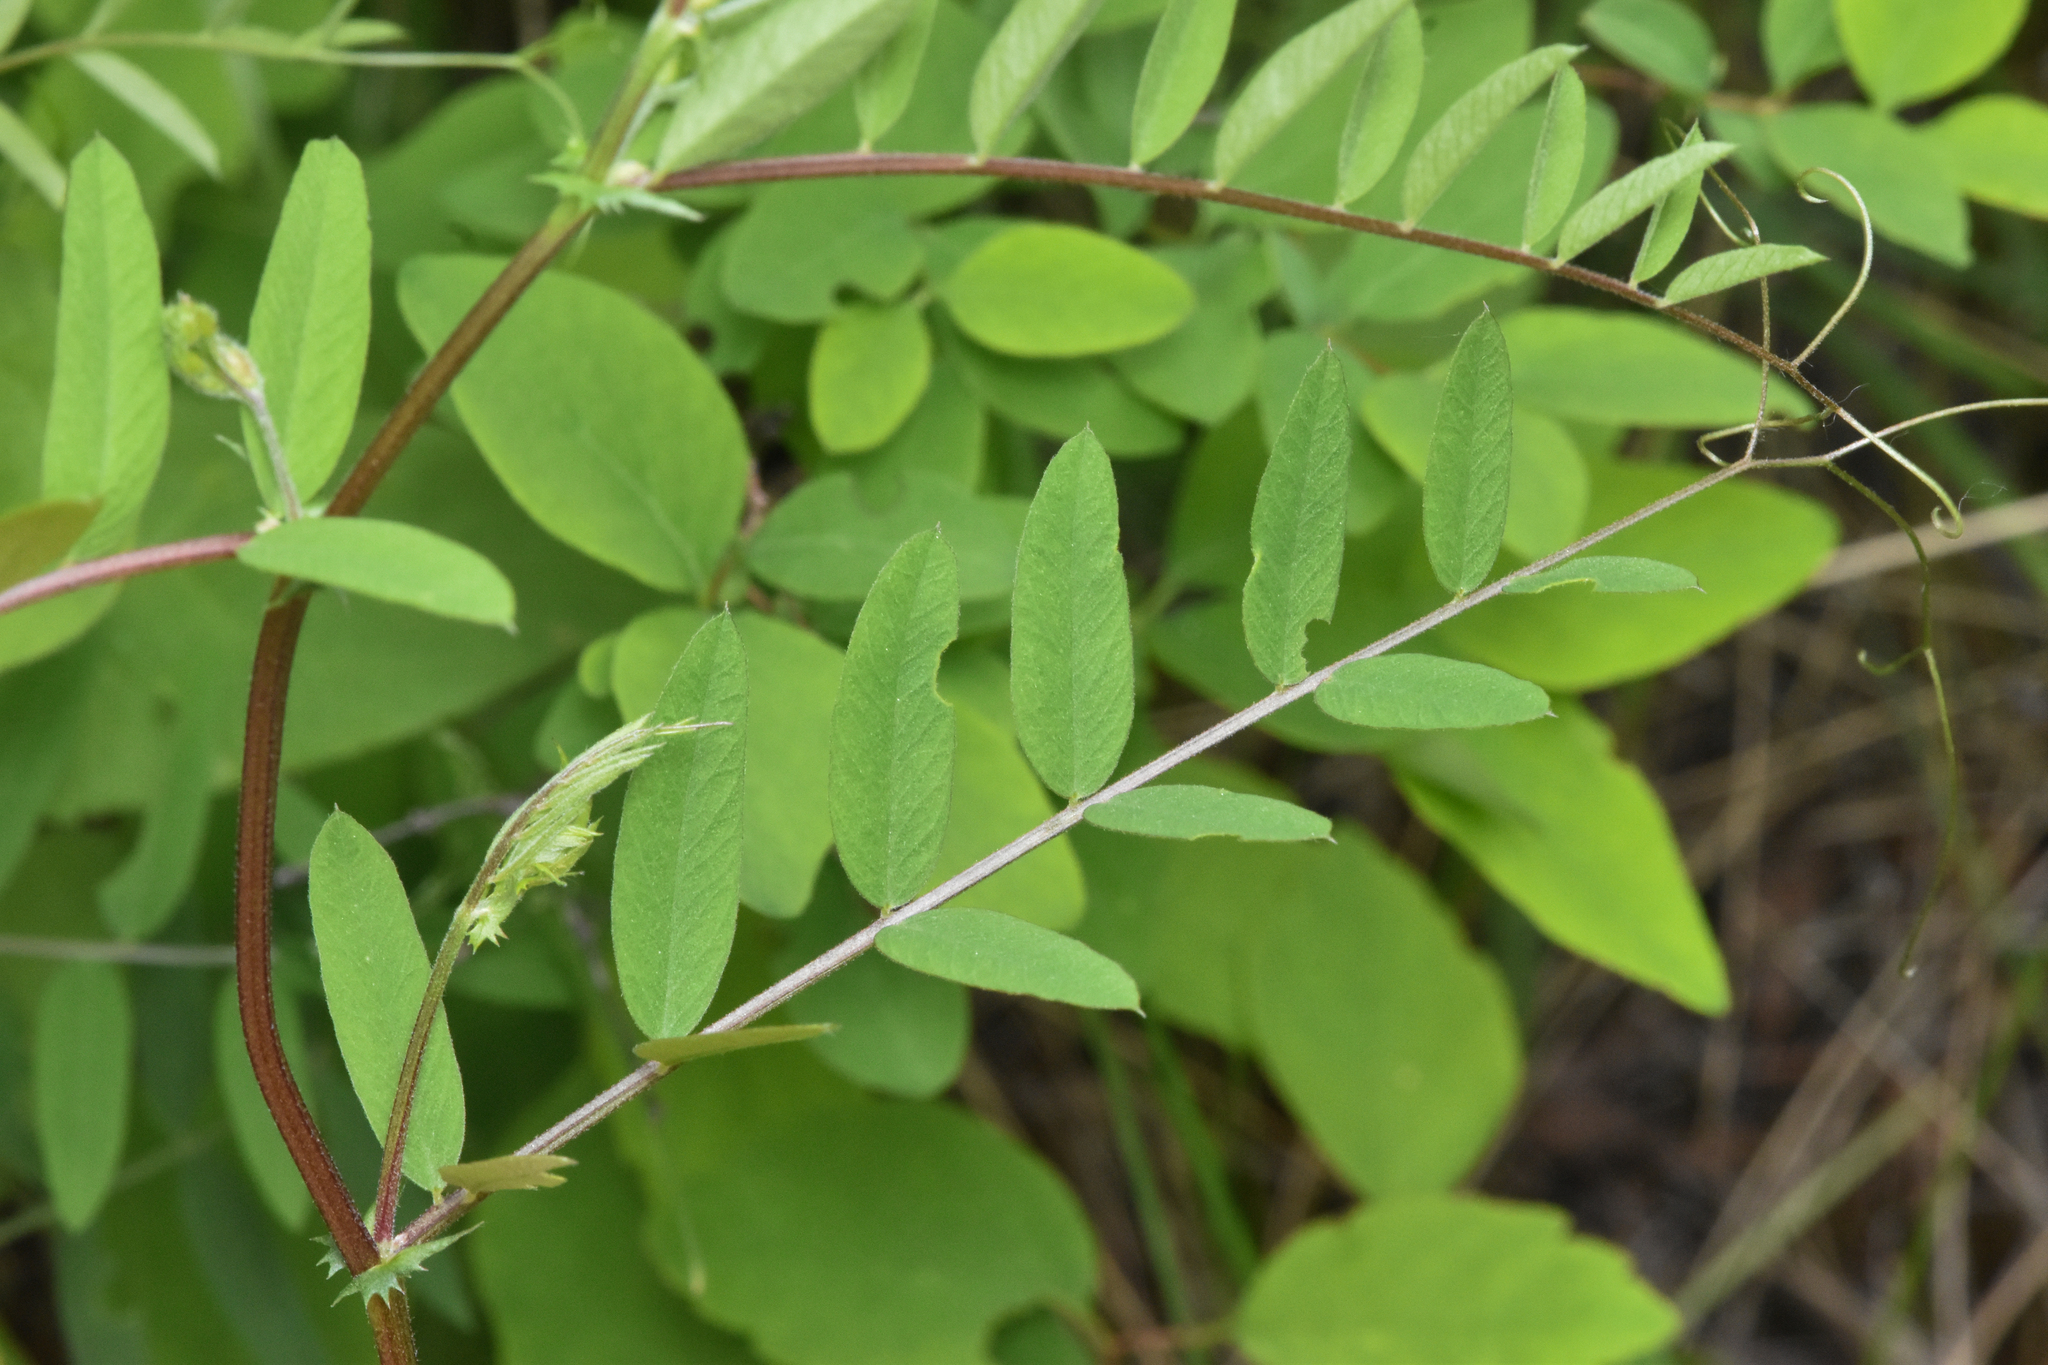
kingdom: Plantae
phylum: Tracheophyta
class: Magnoliopsida
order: Fabales
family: Fabaceae
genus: Vicia
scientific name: Vicia americana
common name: American vetch
